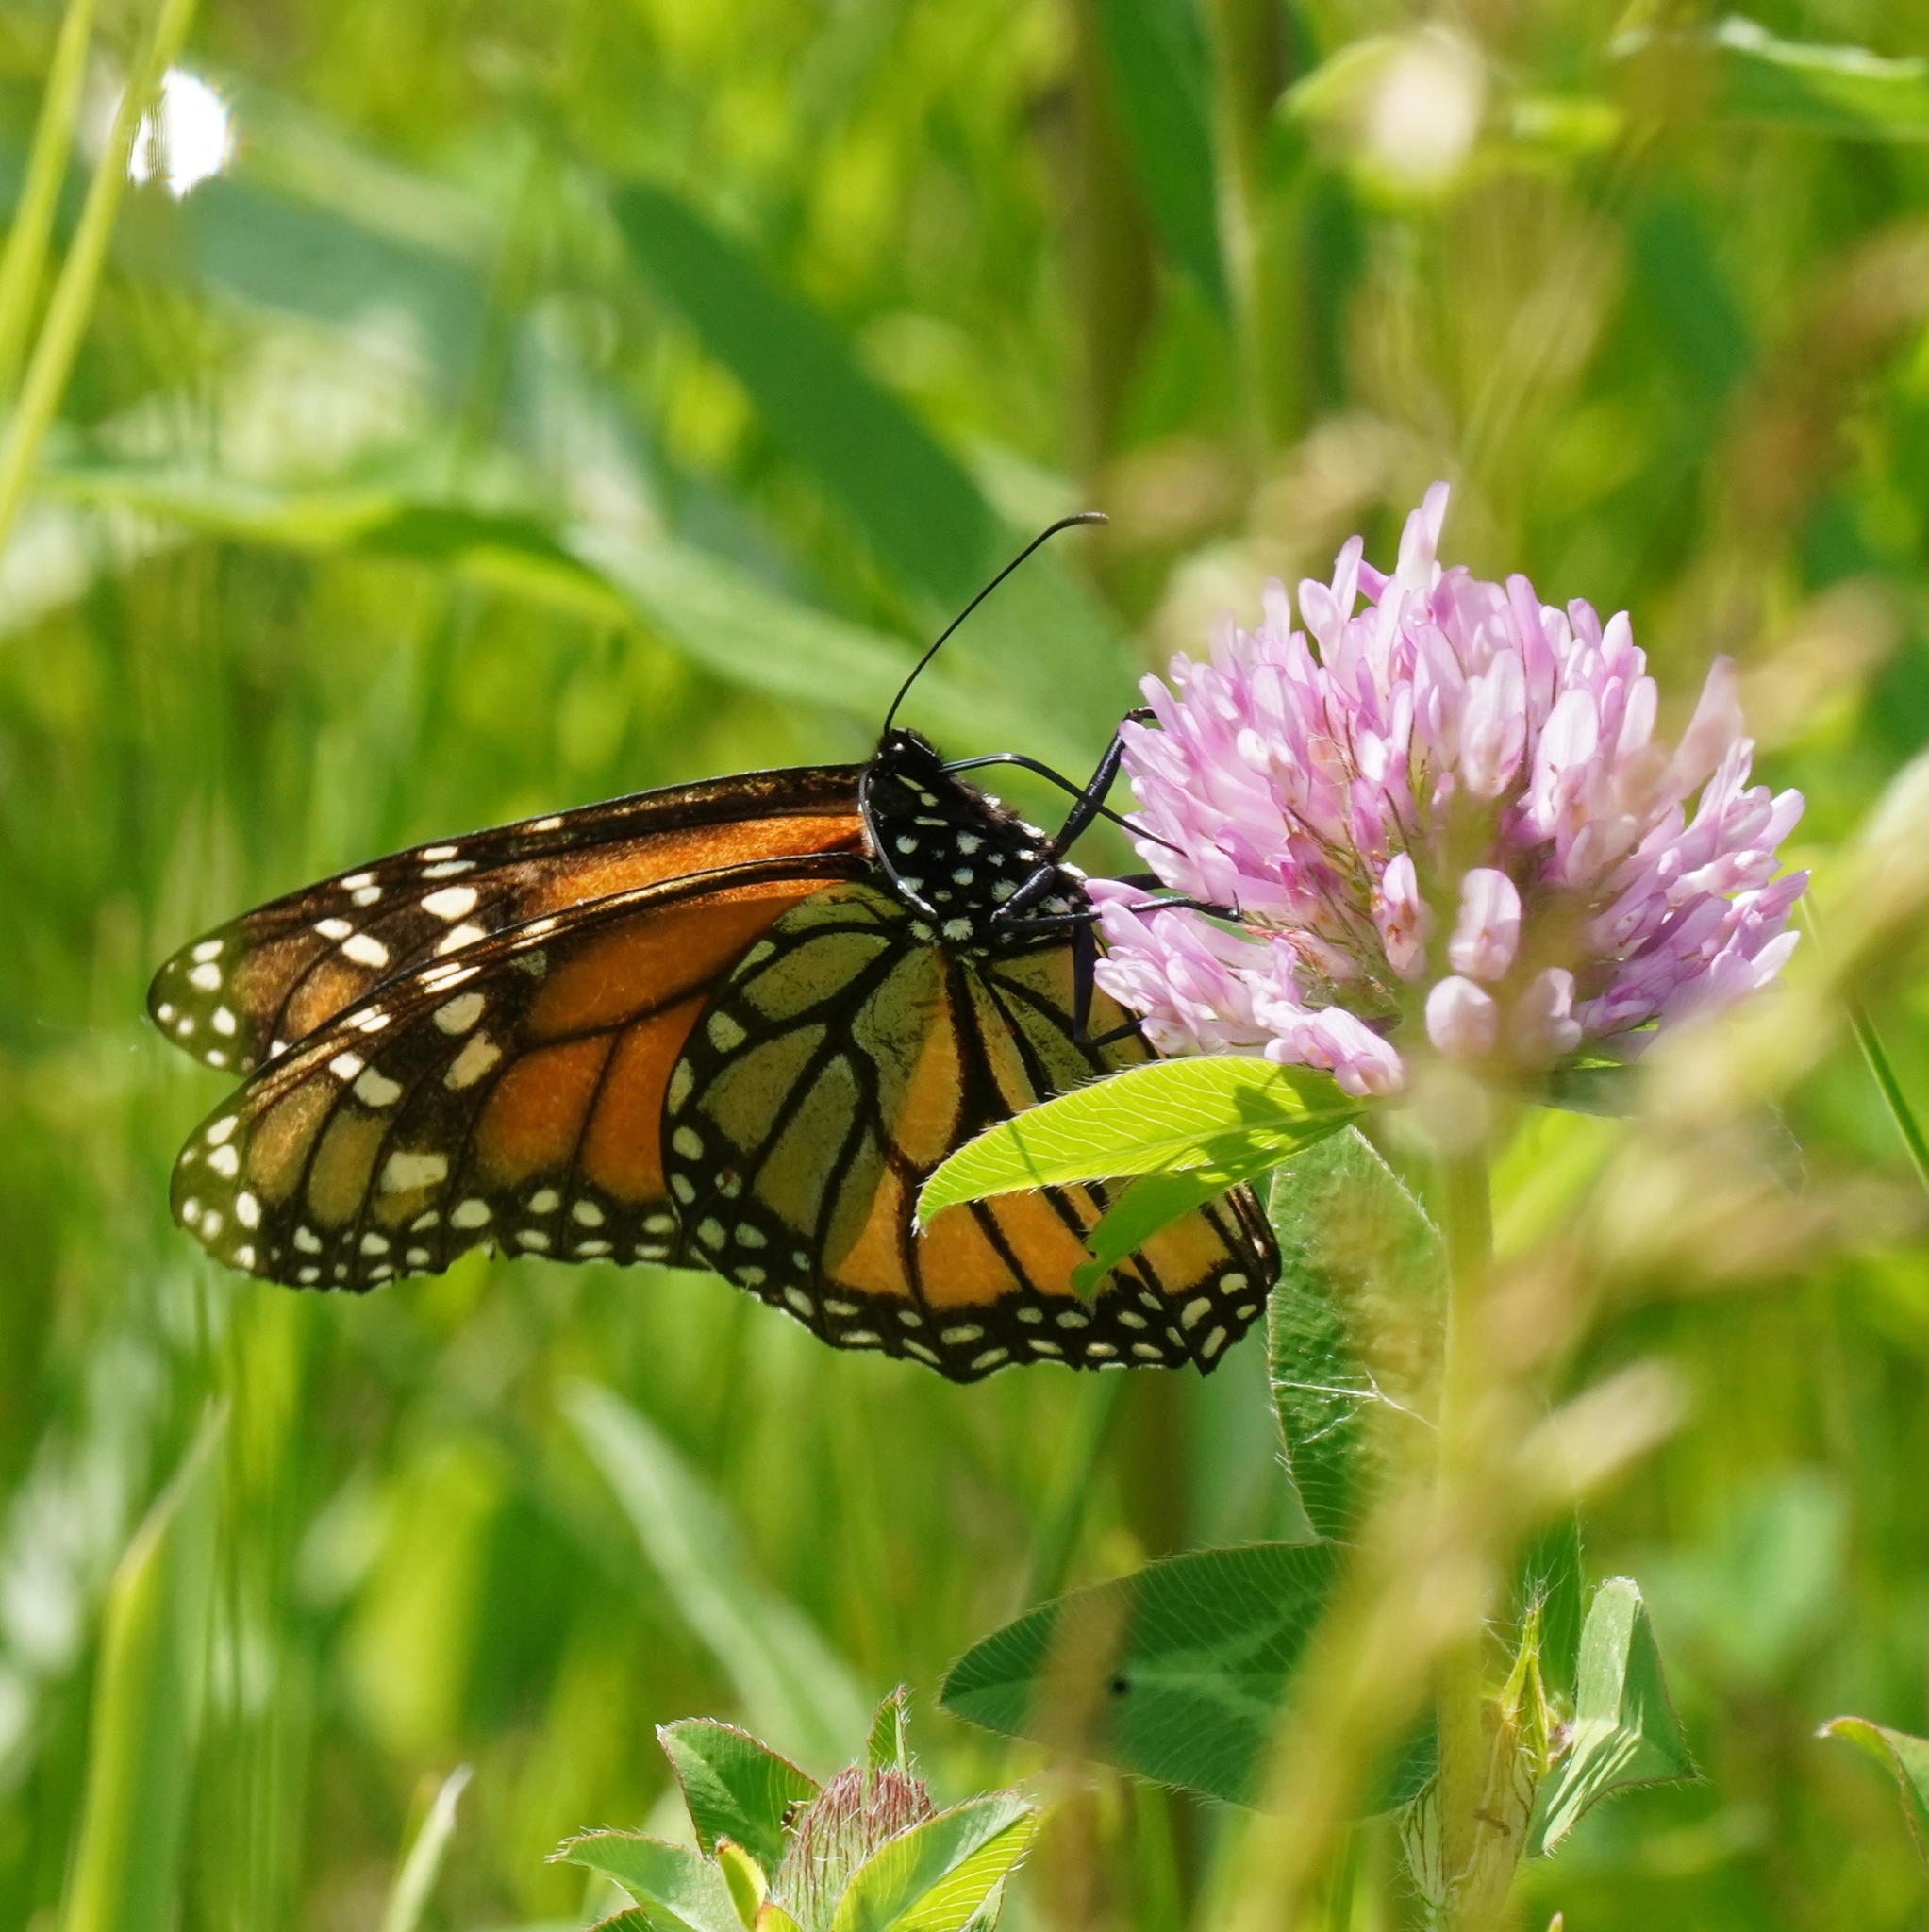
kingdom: Animalia
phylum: Arthropoda
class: Insecta
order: Lepidoptera
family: Nymphalidae
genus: Danaus
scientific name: Danaus plexippus
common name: Monarch
